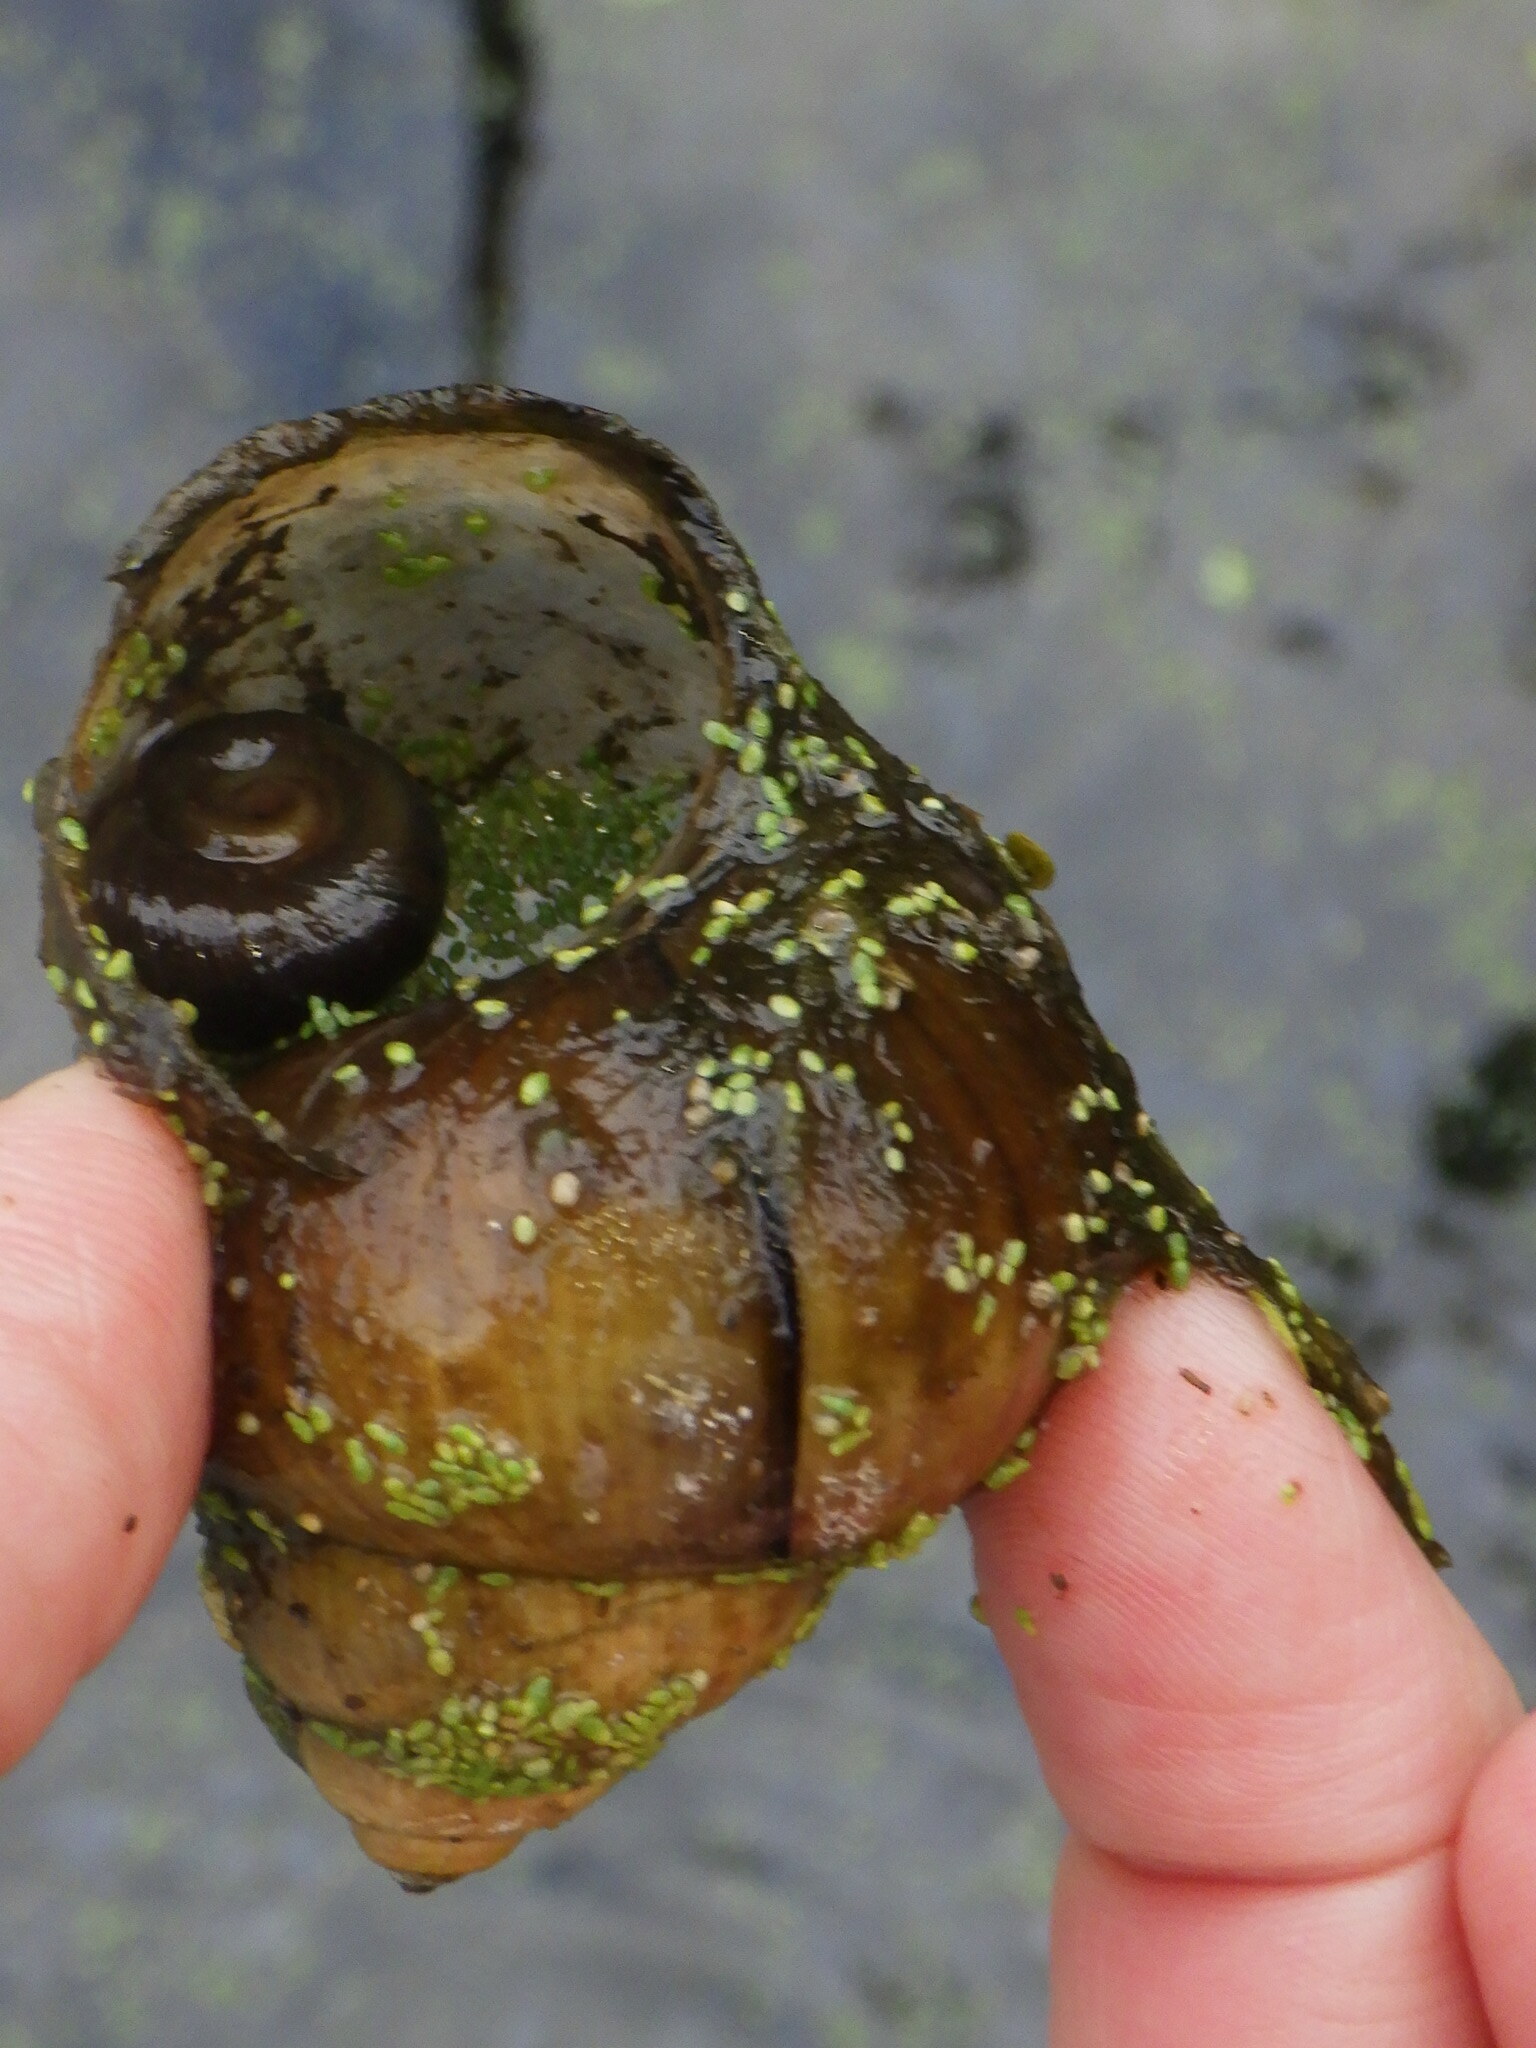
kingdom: Animalia
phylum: Mollusca
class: Gastropoda
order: Architaenioglossa
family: Viviparidae
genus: Cipangopaludina
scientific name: Cipangopaludina chinensis
